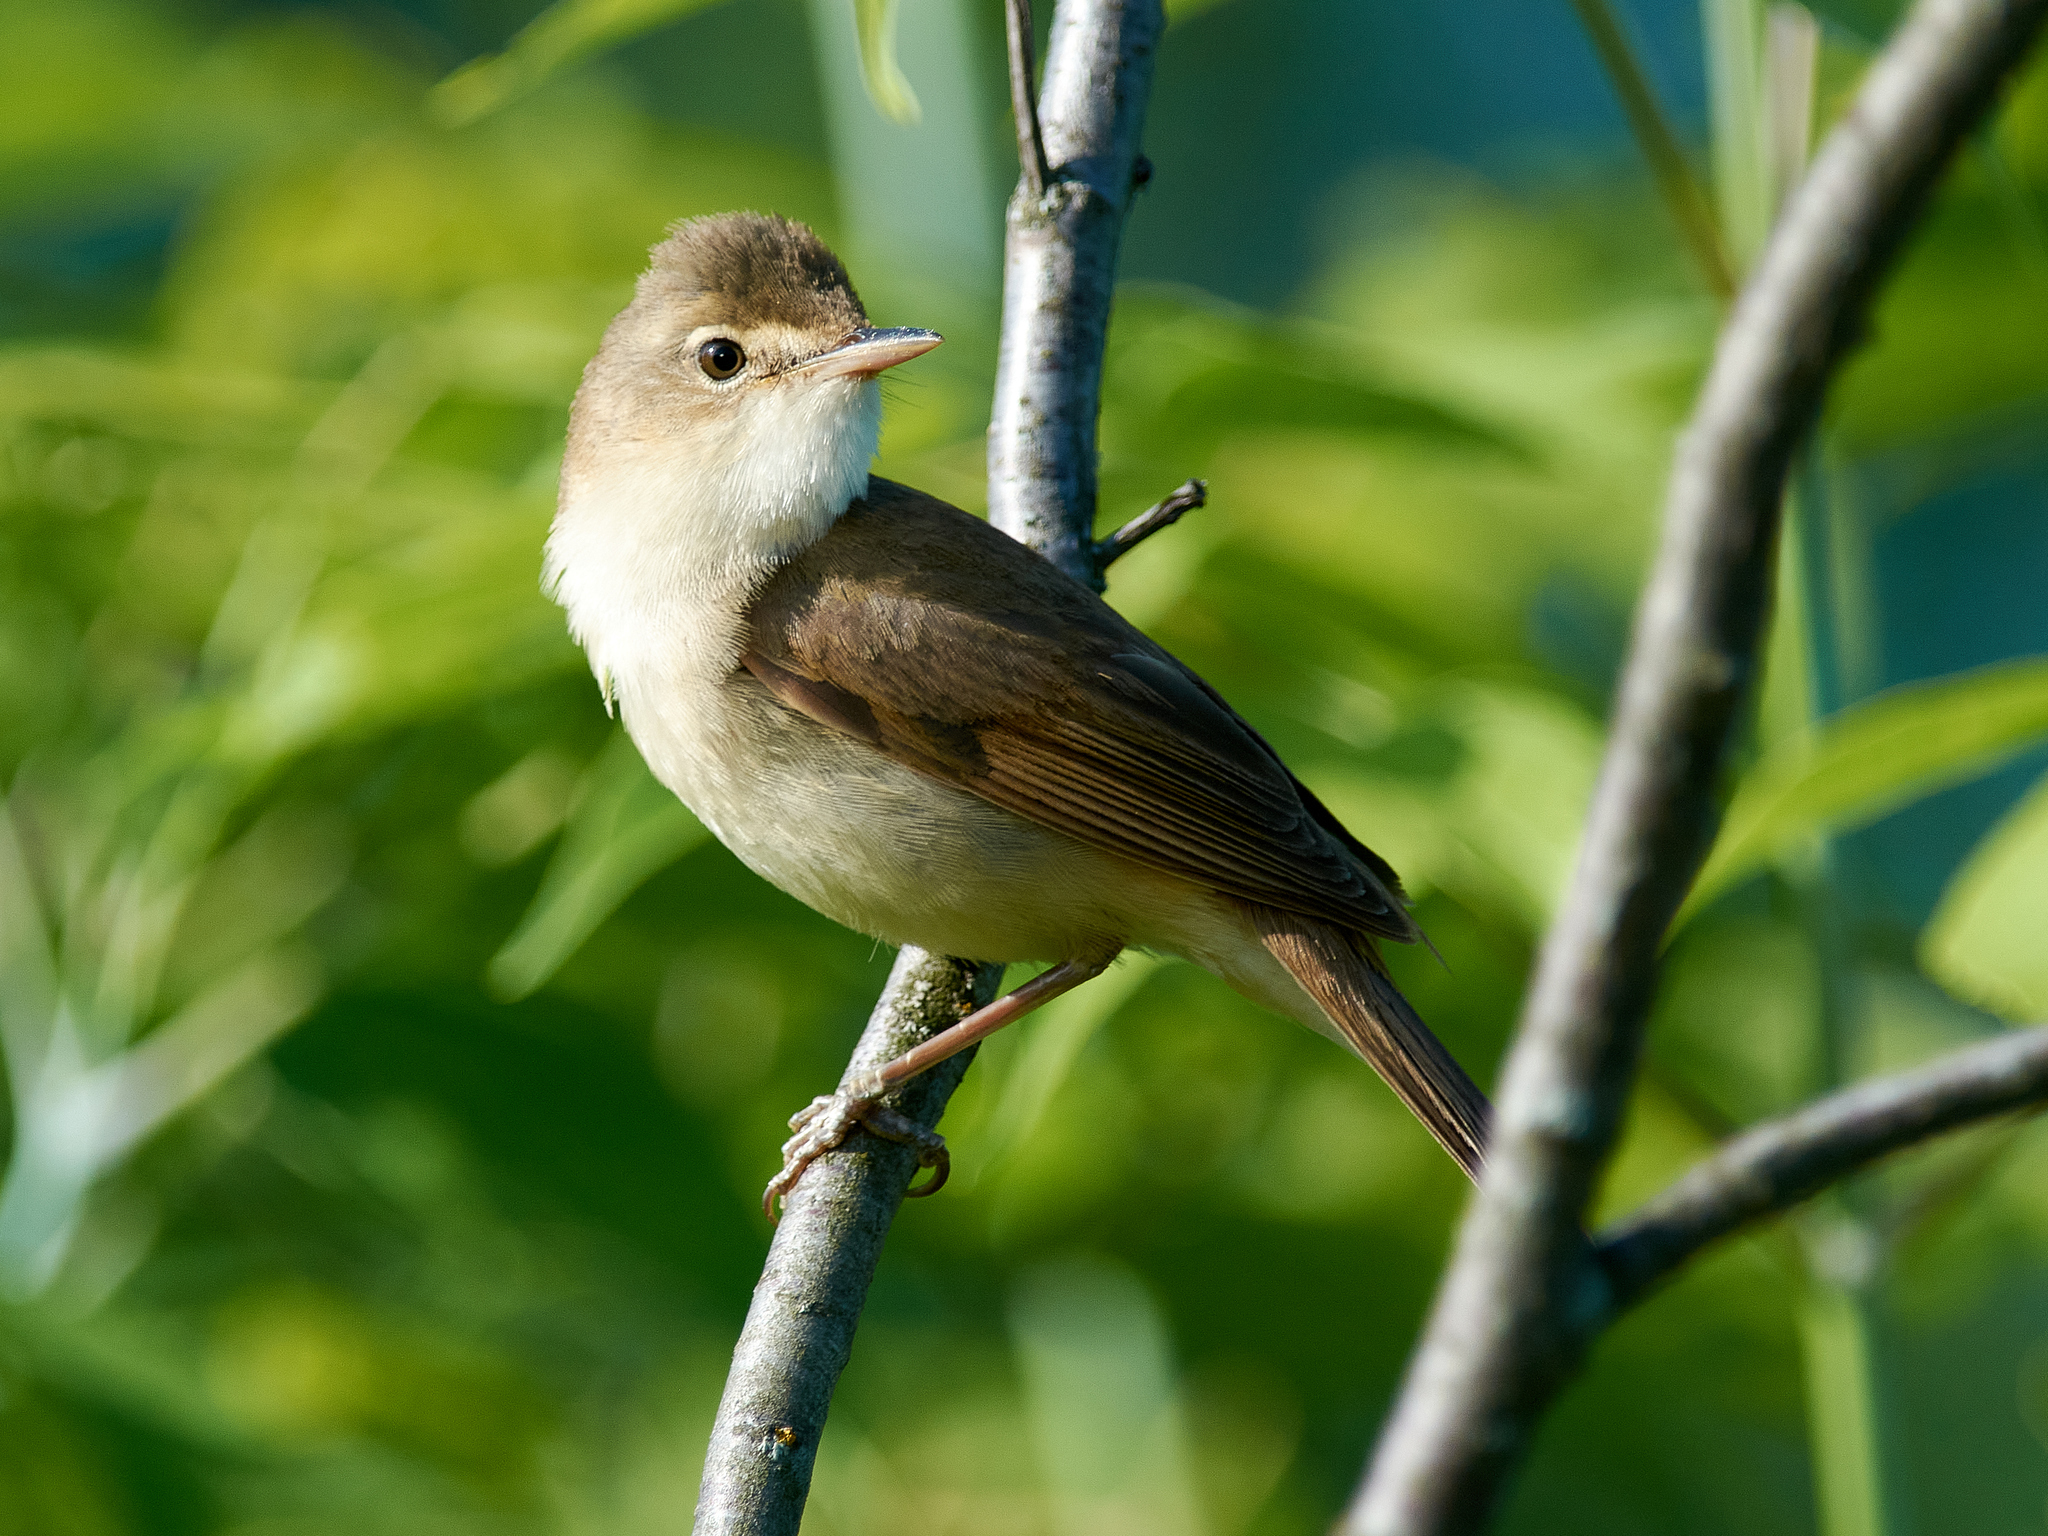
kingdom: Animalia
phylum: Chordata
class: Aves
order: Passeriformes
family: Acrocephalidae
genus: Acrocephalus
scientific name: Acrocephalus dumetorum
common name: Blyth's reed warbler
